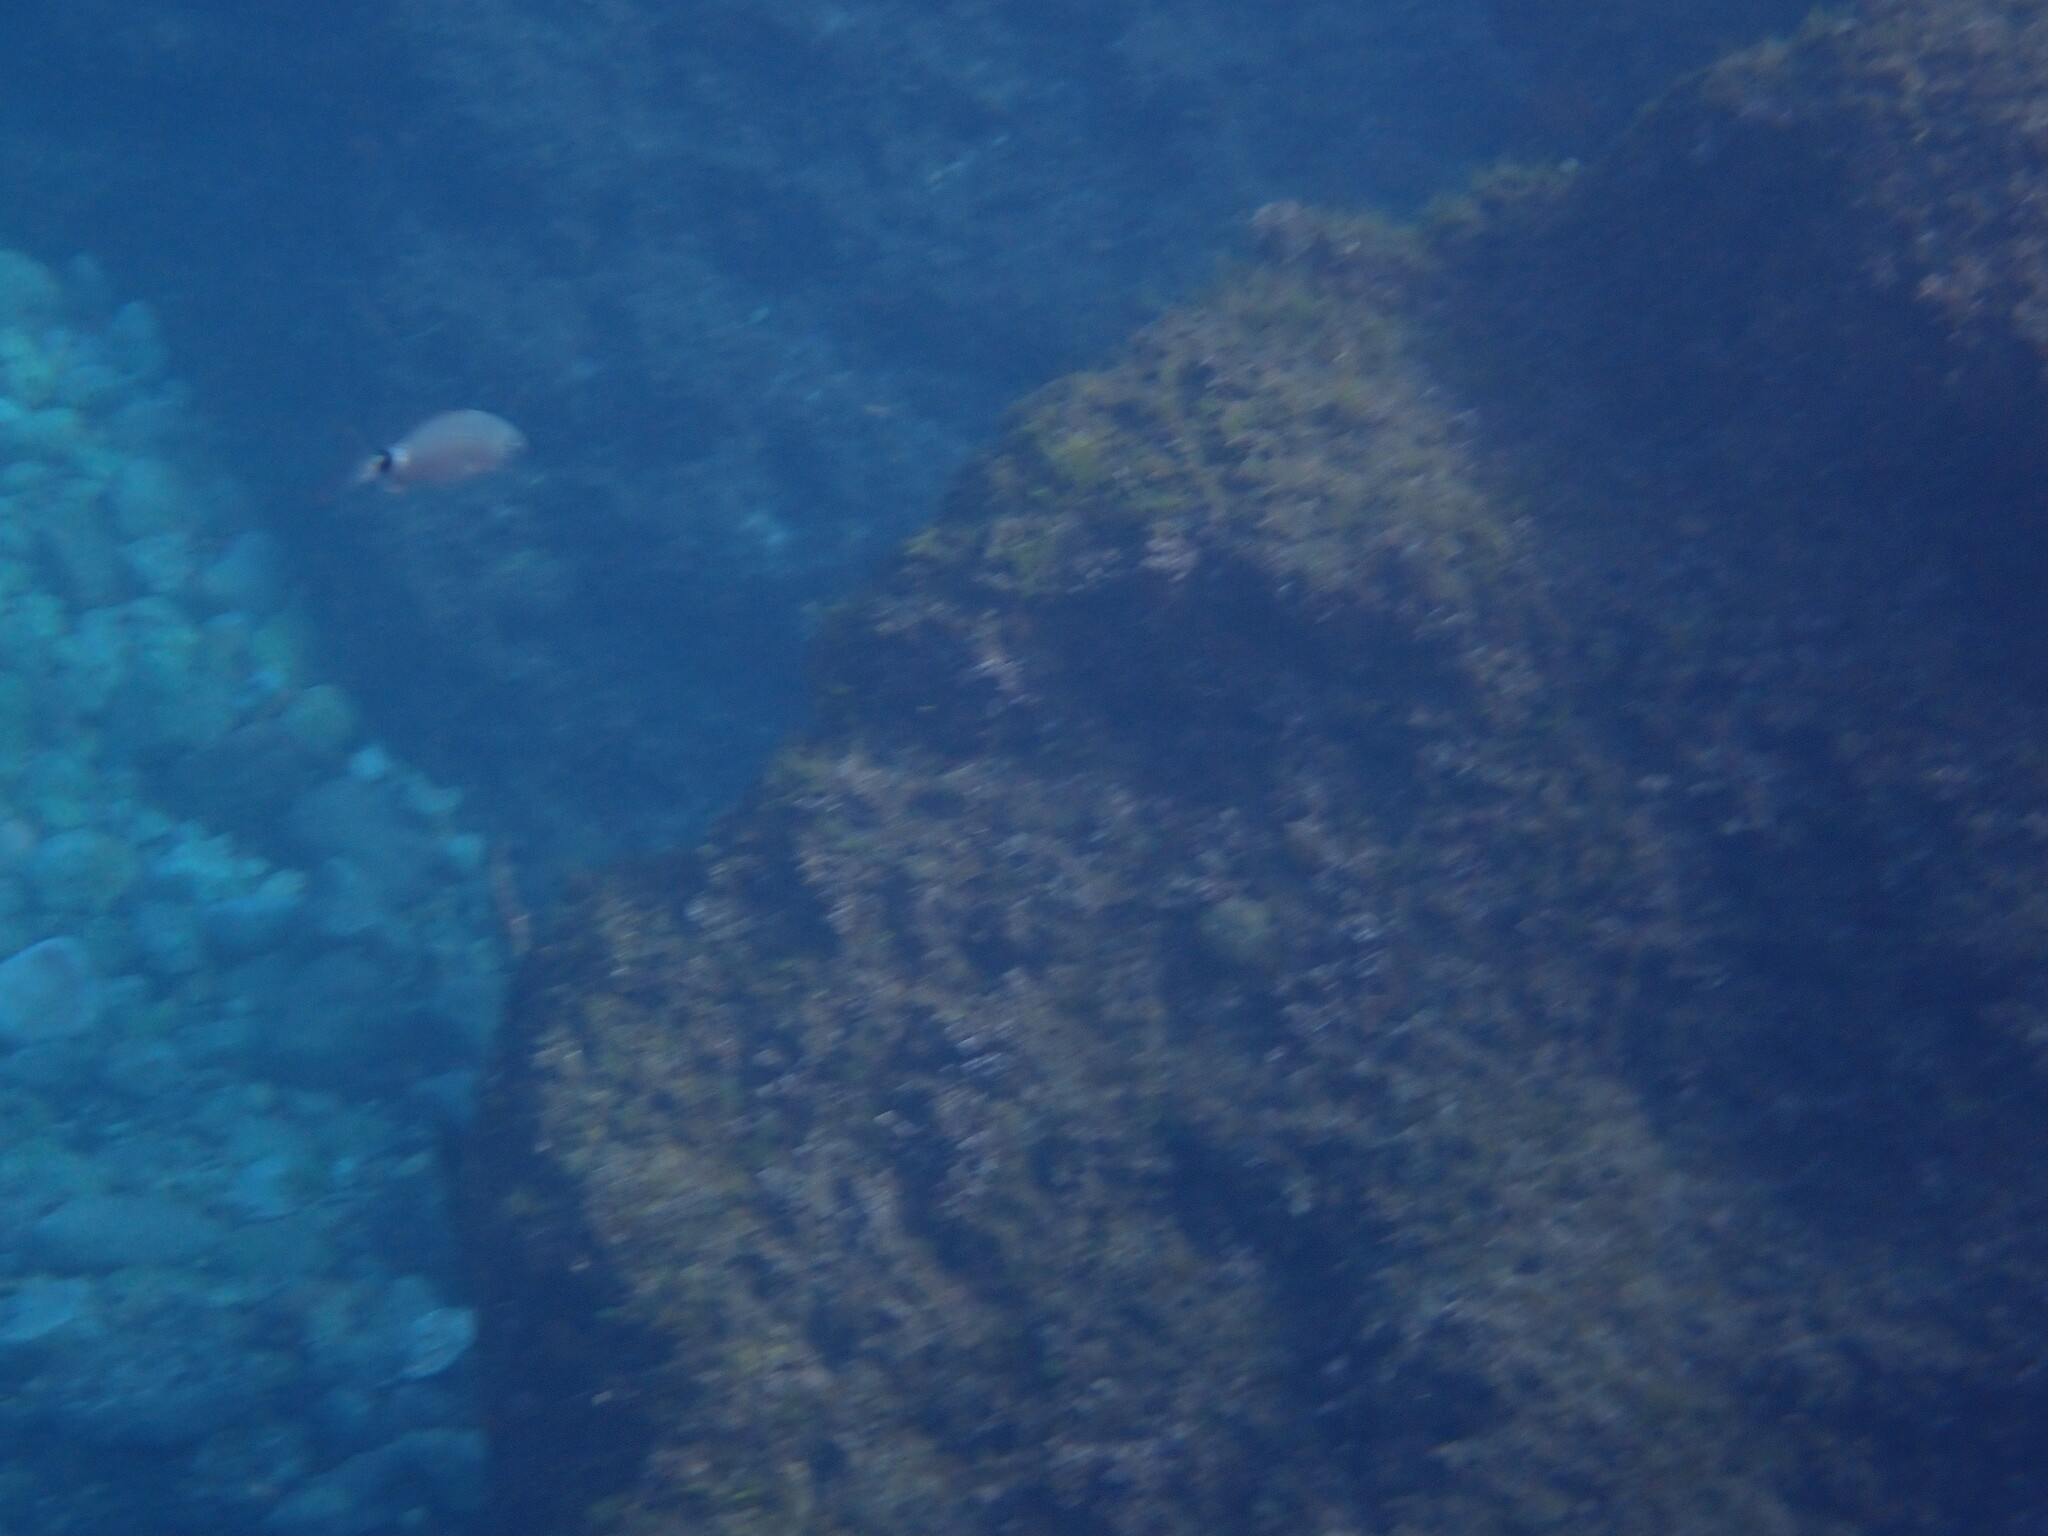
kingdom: Animalia
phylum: Chordata
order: Perciformes
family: Sparidae
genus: Oblada
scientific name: Oblada melanura
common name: Saddled seabream
